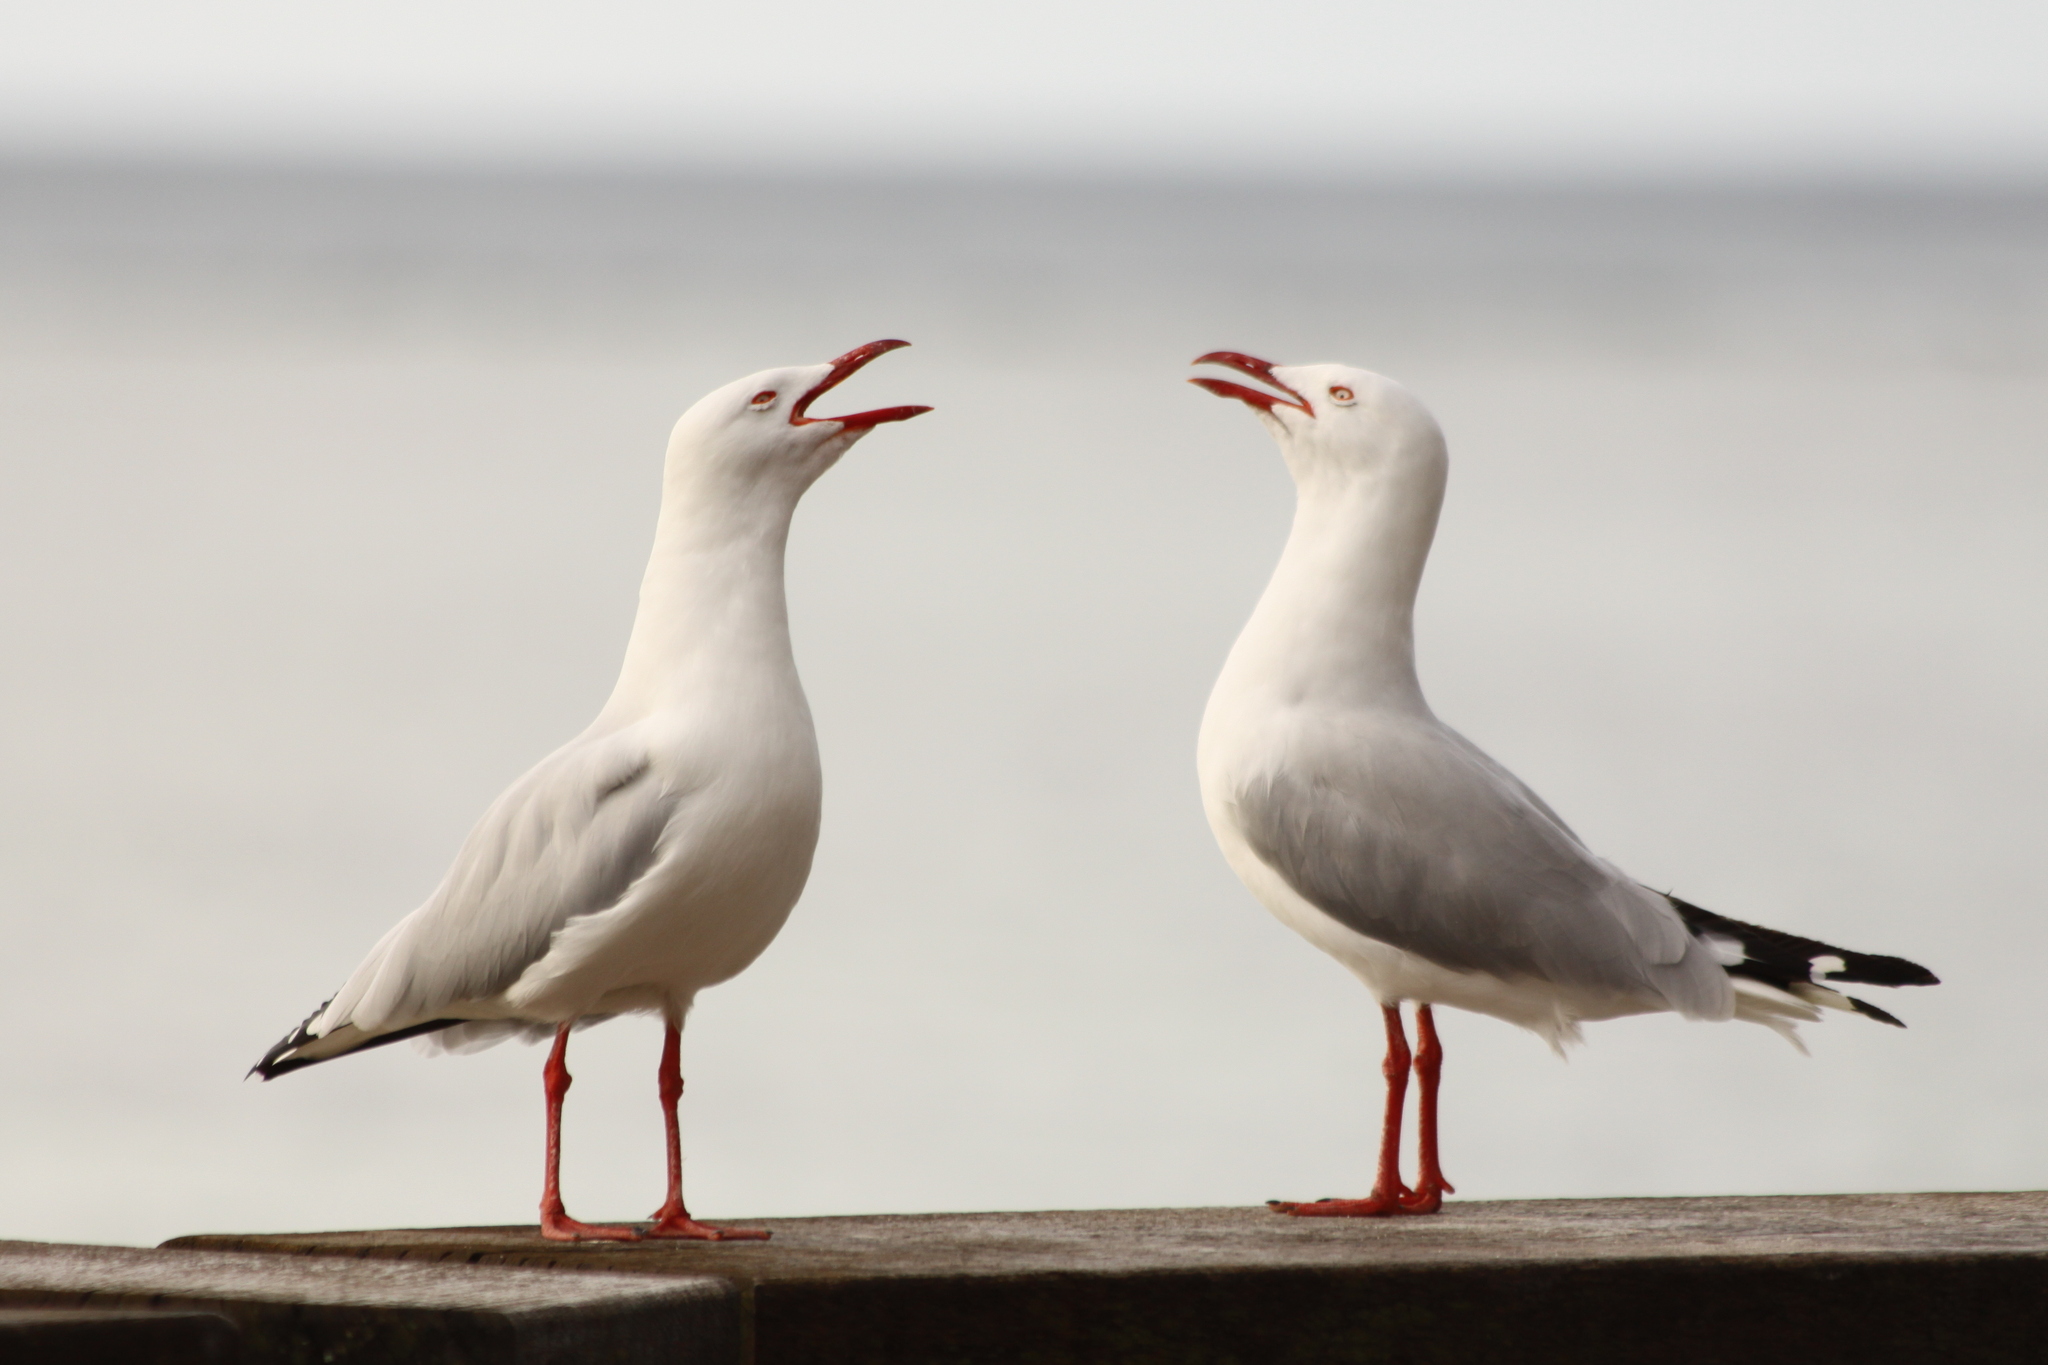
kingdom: Animalia
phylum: Chordata
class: Aves
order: Charadriiformes
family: Laridae
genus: Chroicocephalus
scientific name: Chroicocephalus novaehollandiae
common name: Silver gull
